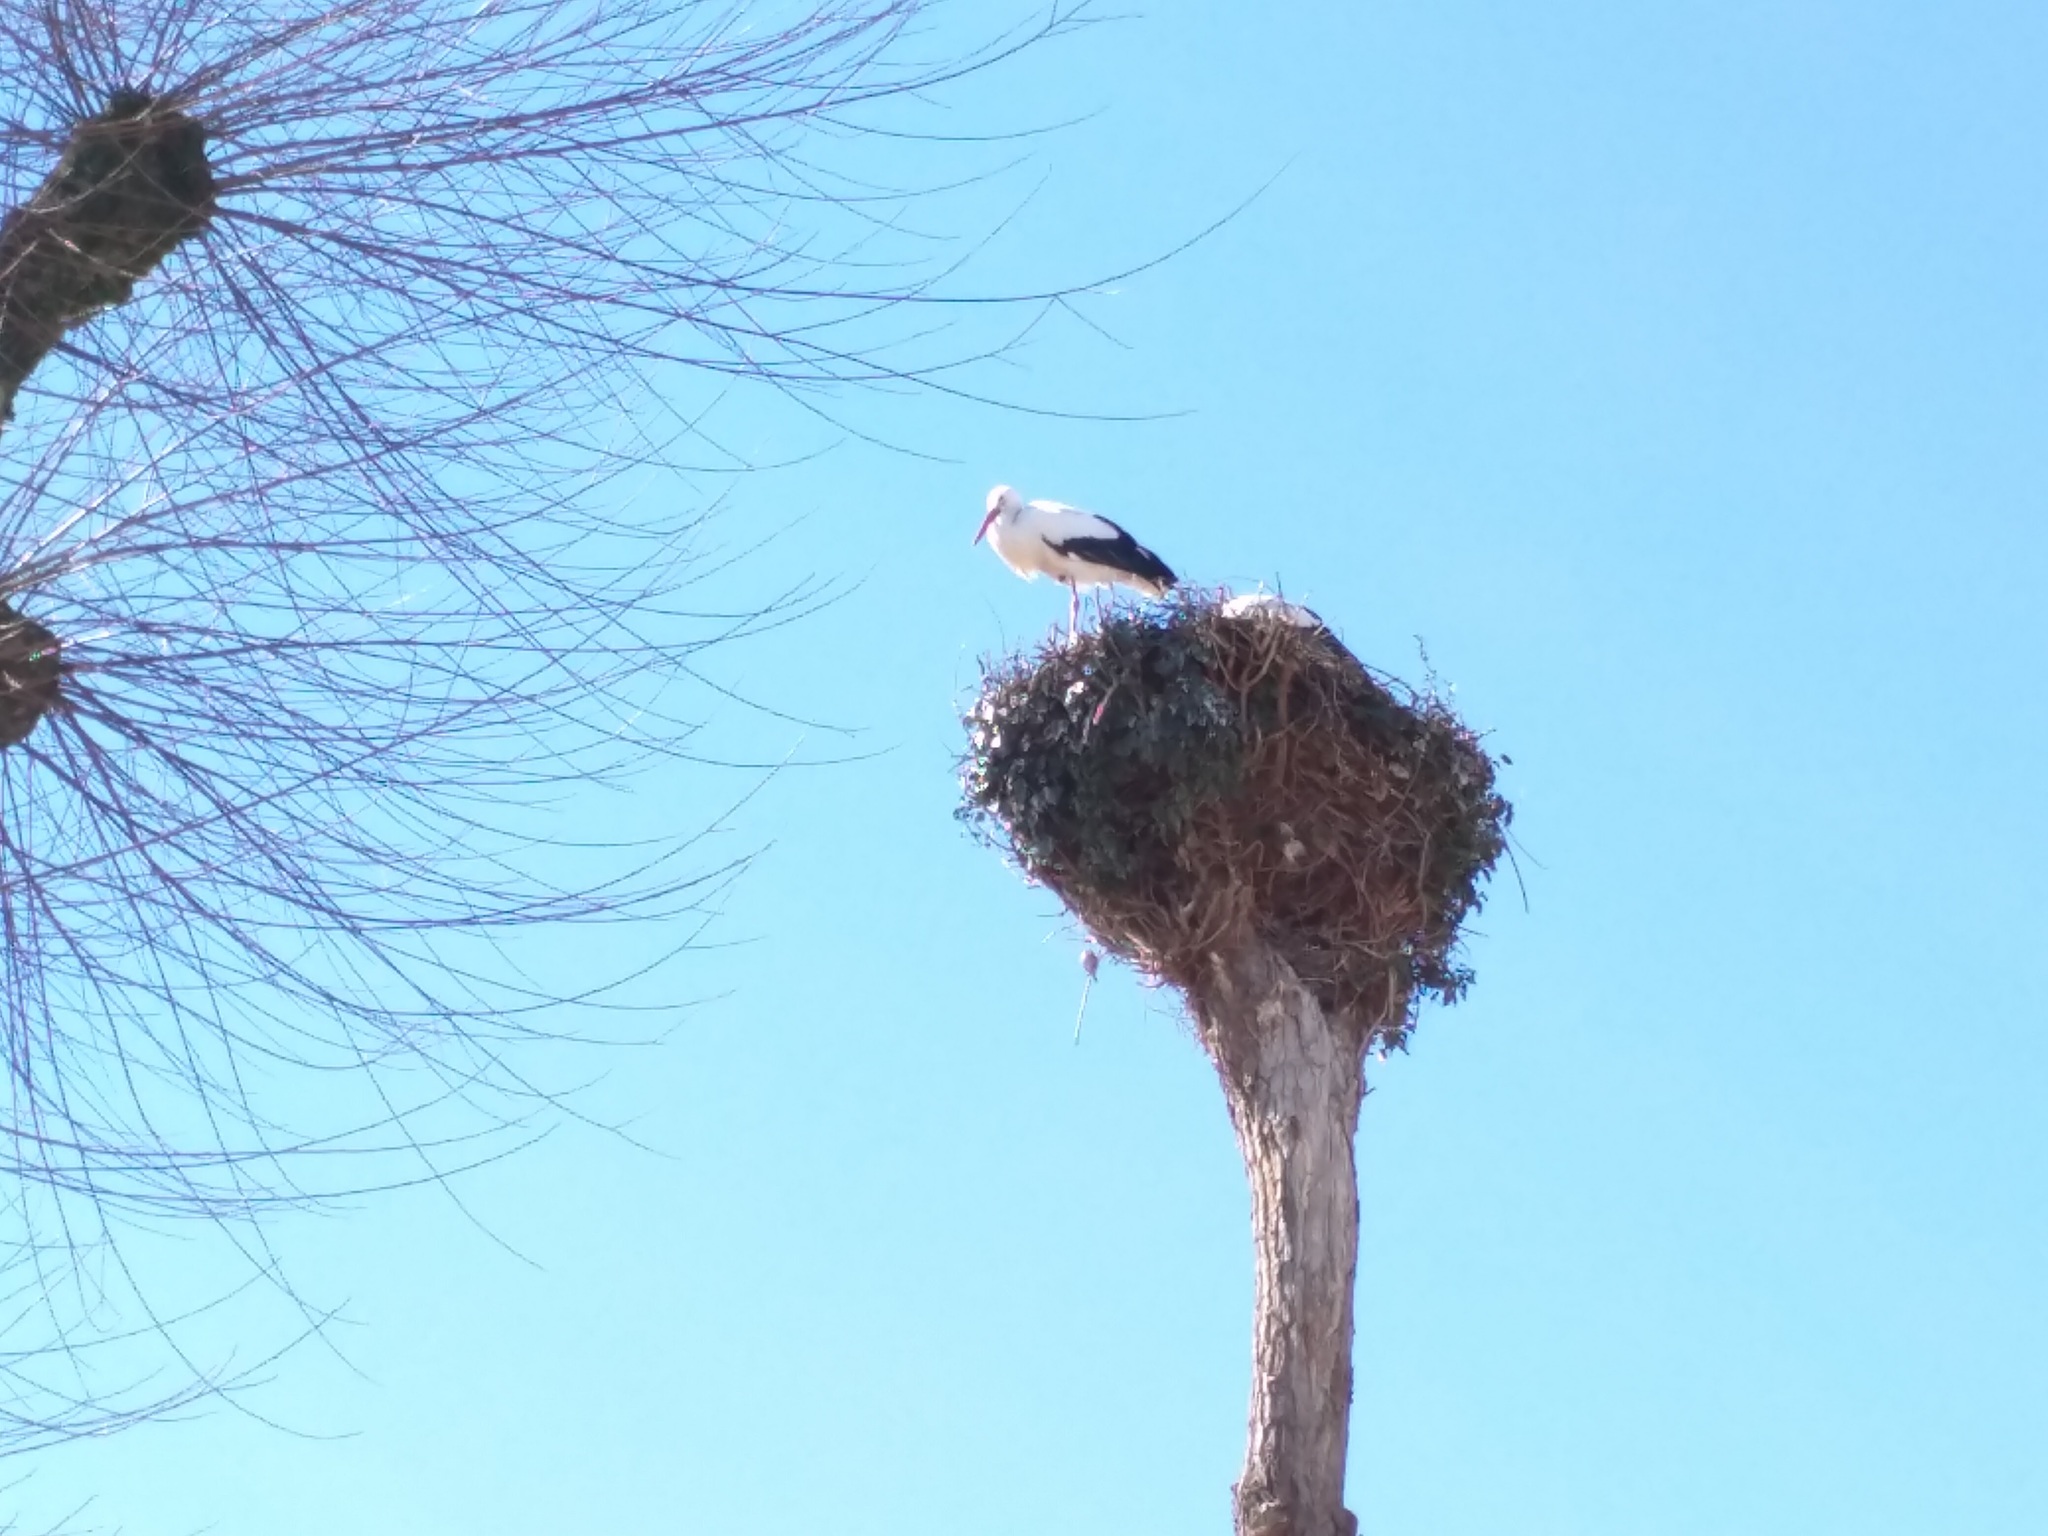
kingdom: Animalia
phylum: Chordata
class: Aves
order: Ciconiiformes
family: Ciconiidae
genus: Ciconia
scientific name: Ciconia ciconia
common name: White stork
